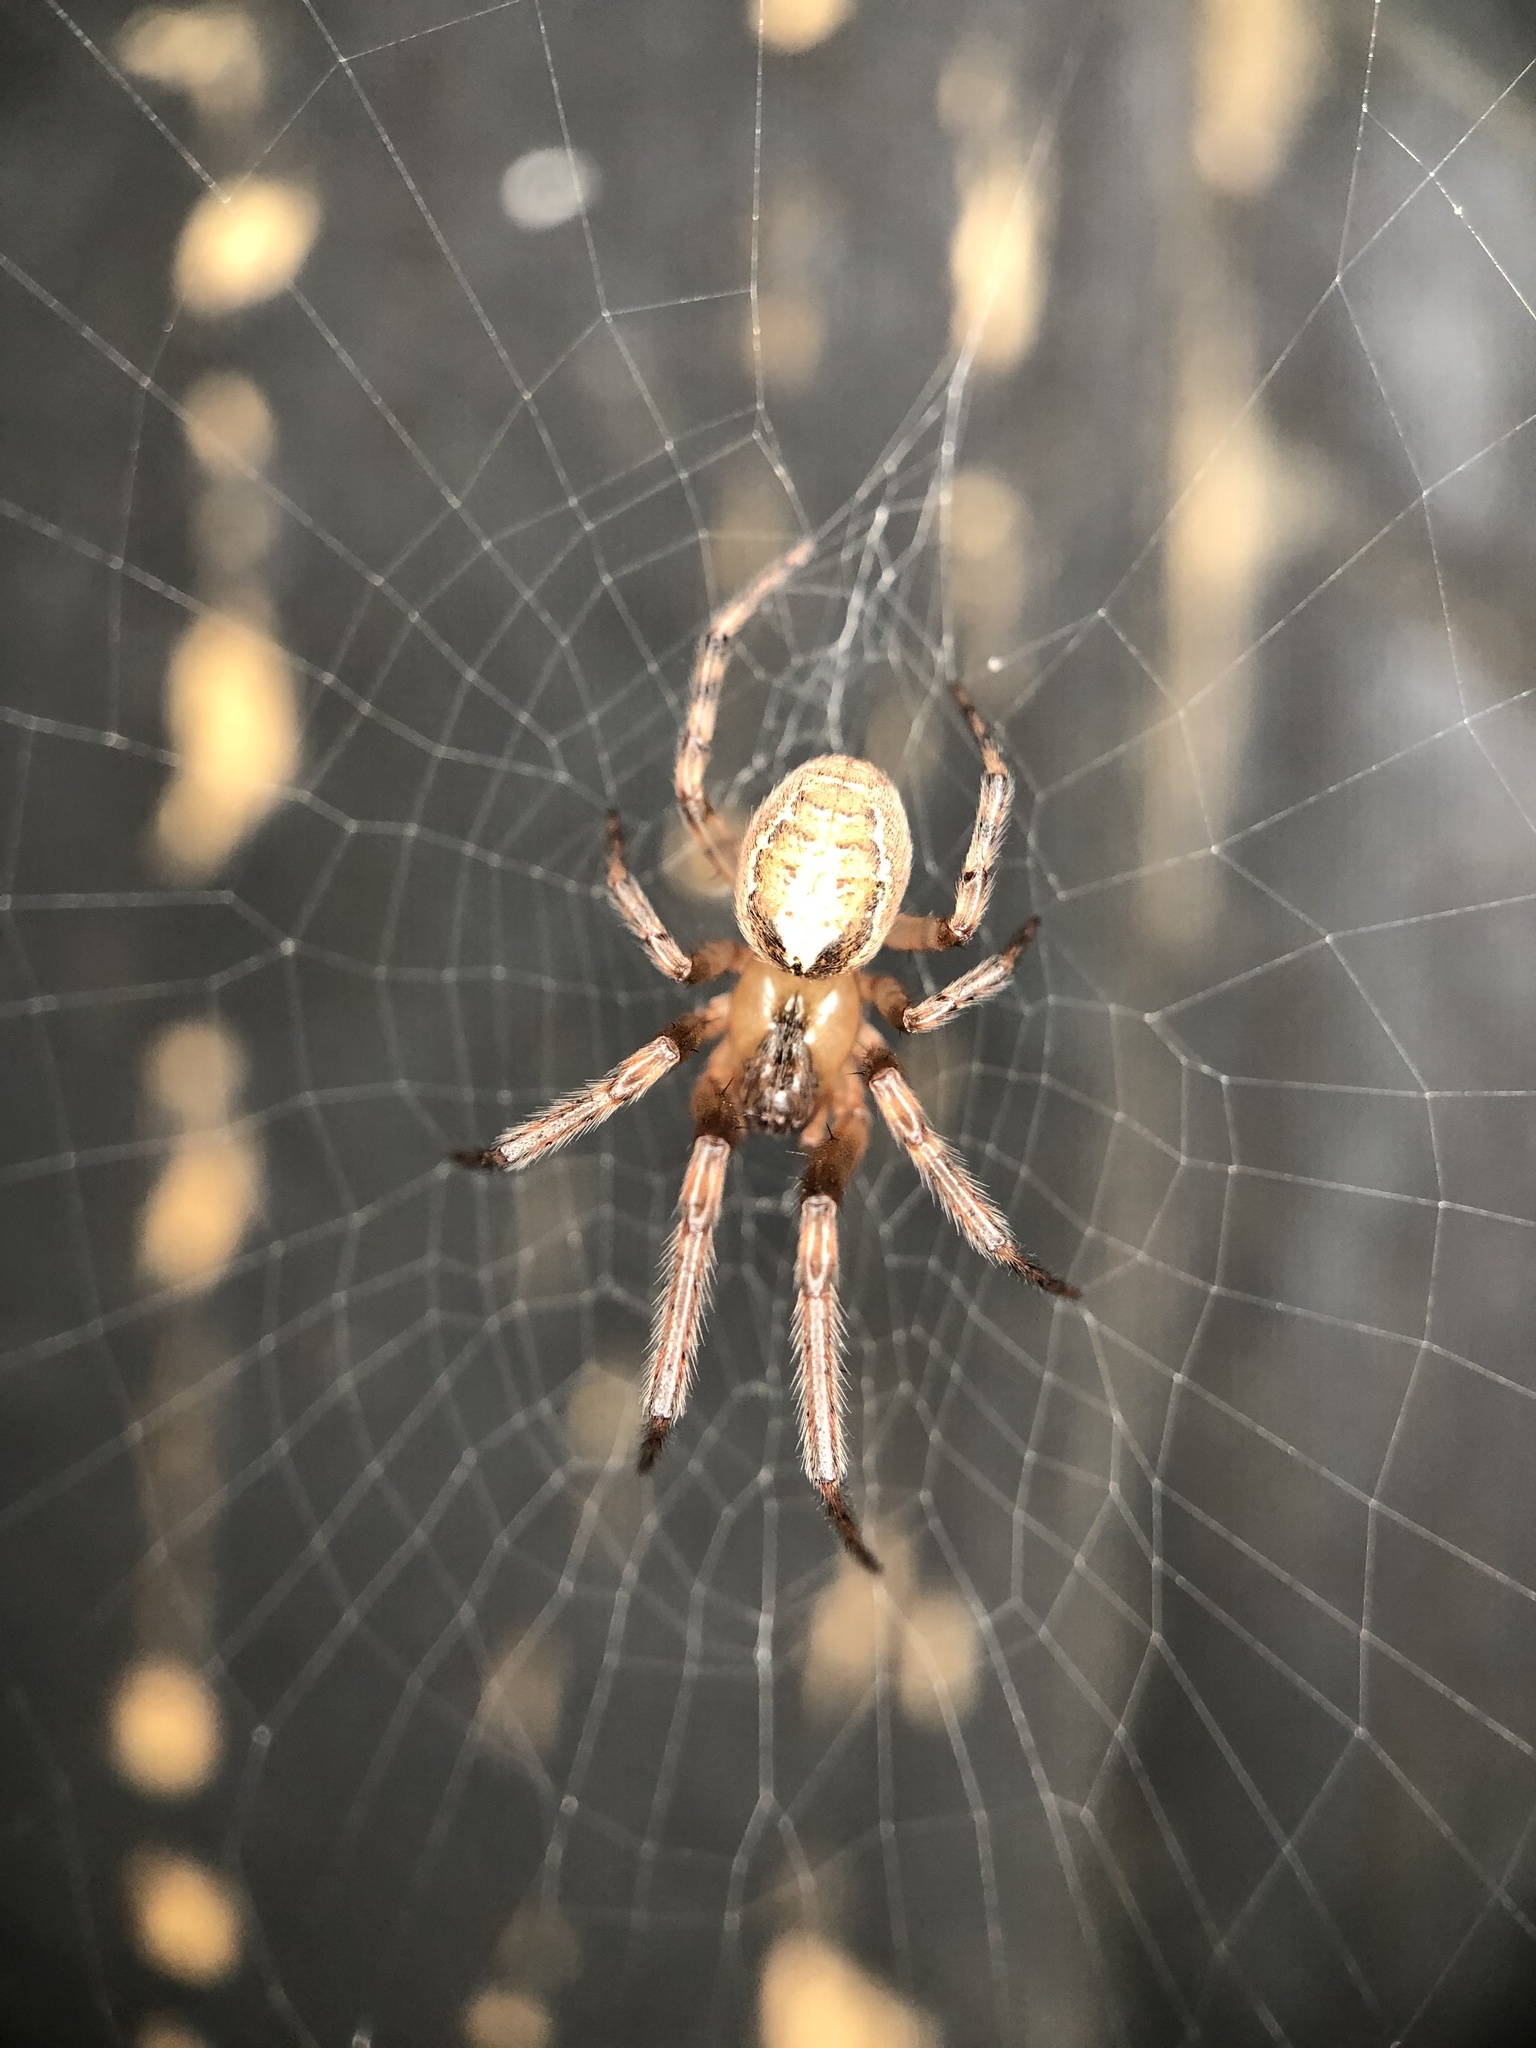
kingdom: Animalia
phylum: Arthropoda
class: Arachnida
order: Araneae
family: Araneidae
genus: Zygiella
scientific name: Zygiella x-notata
